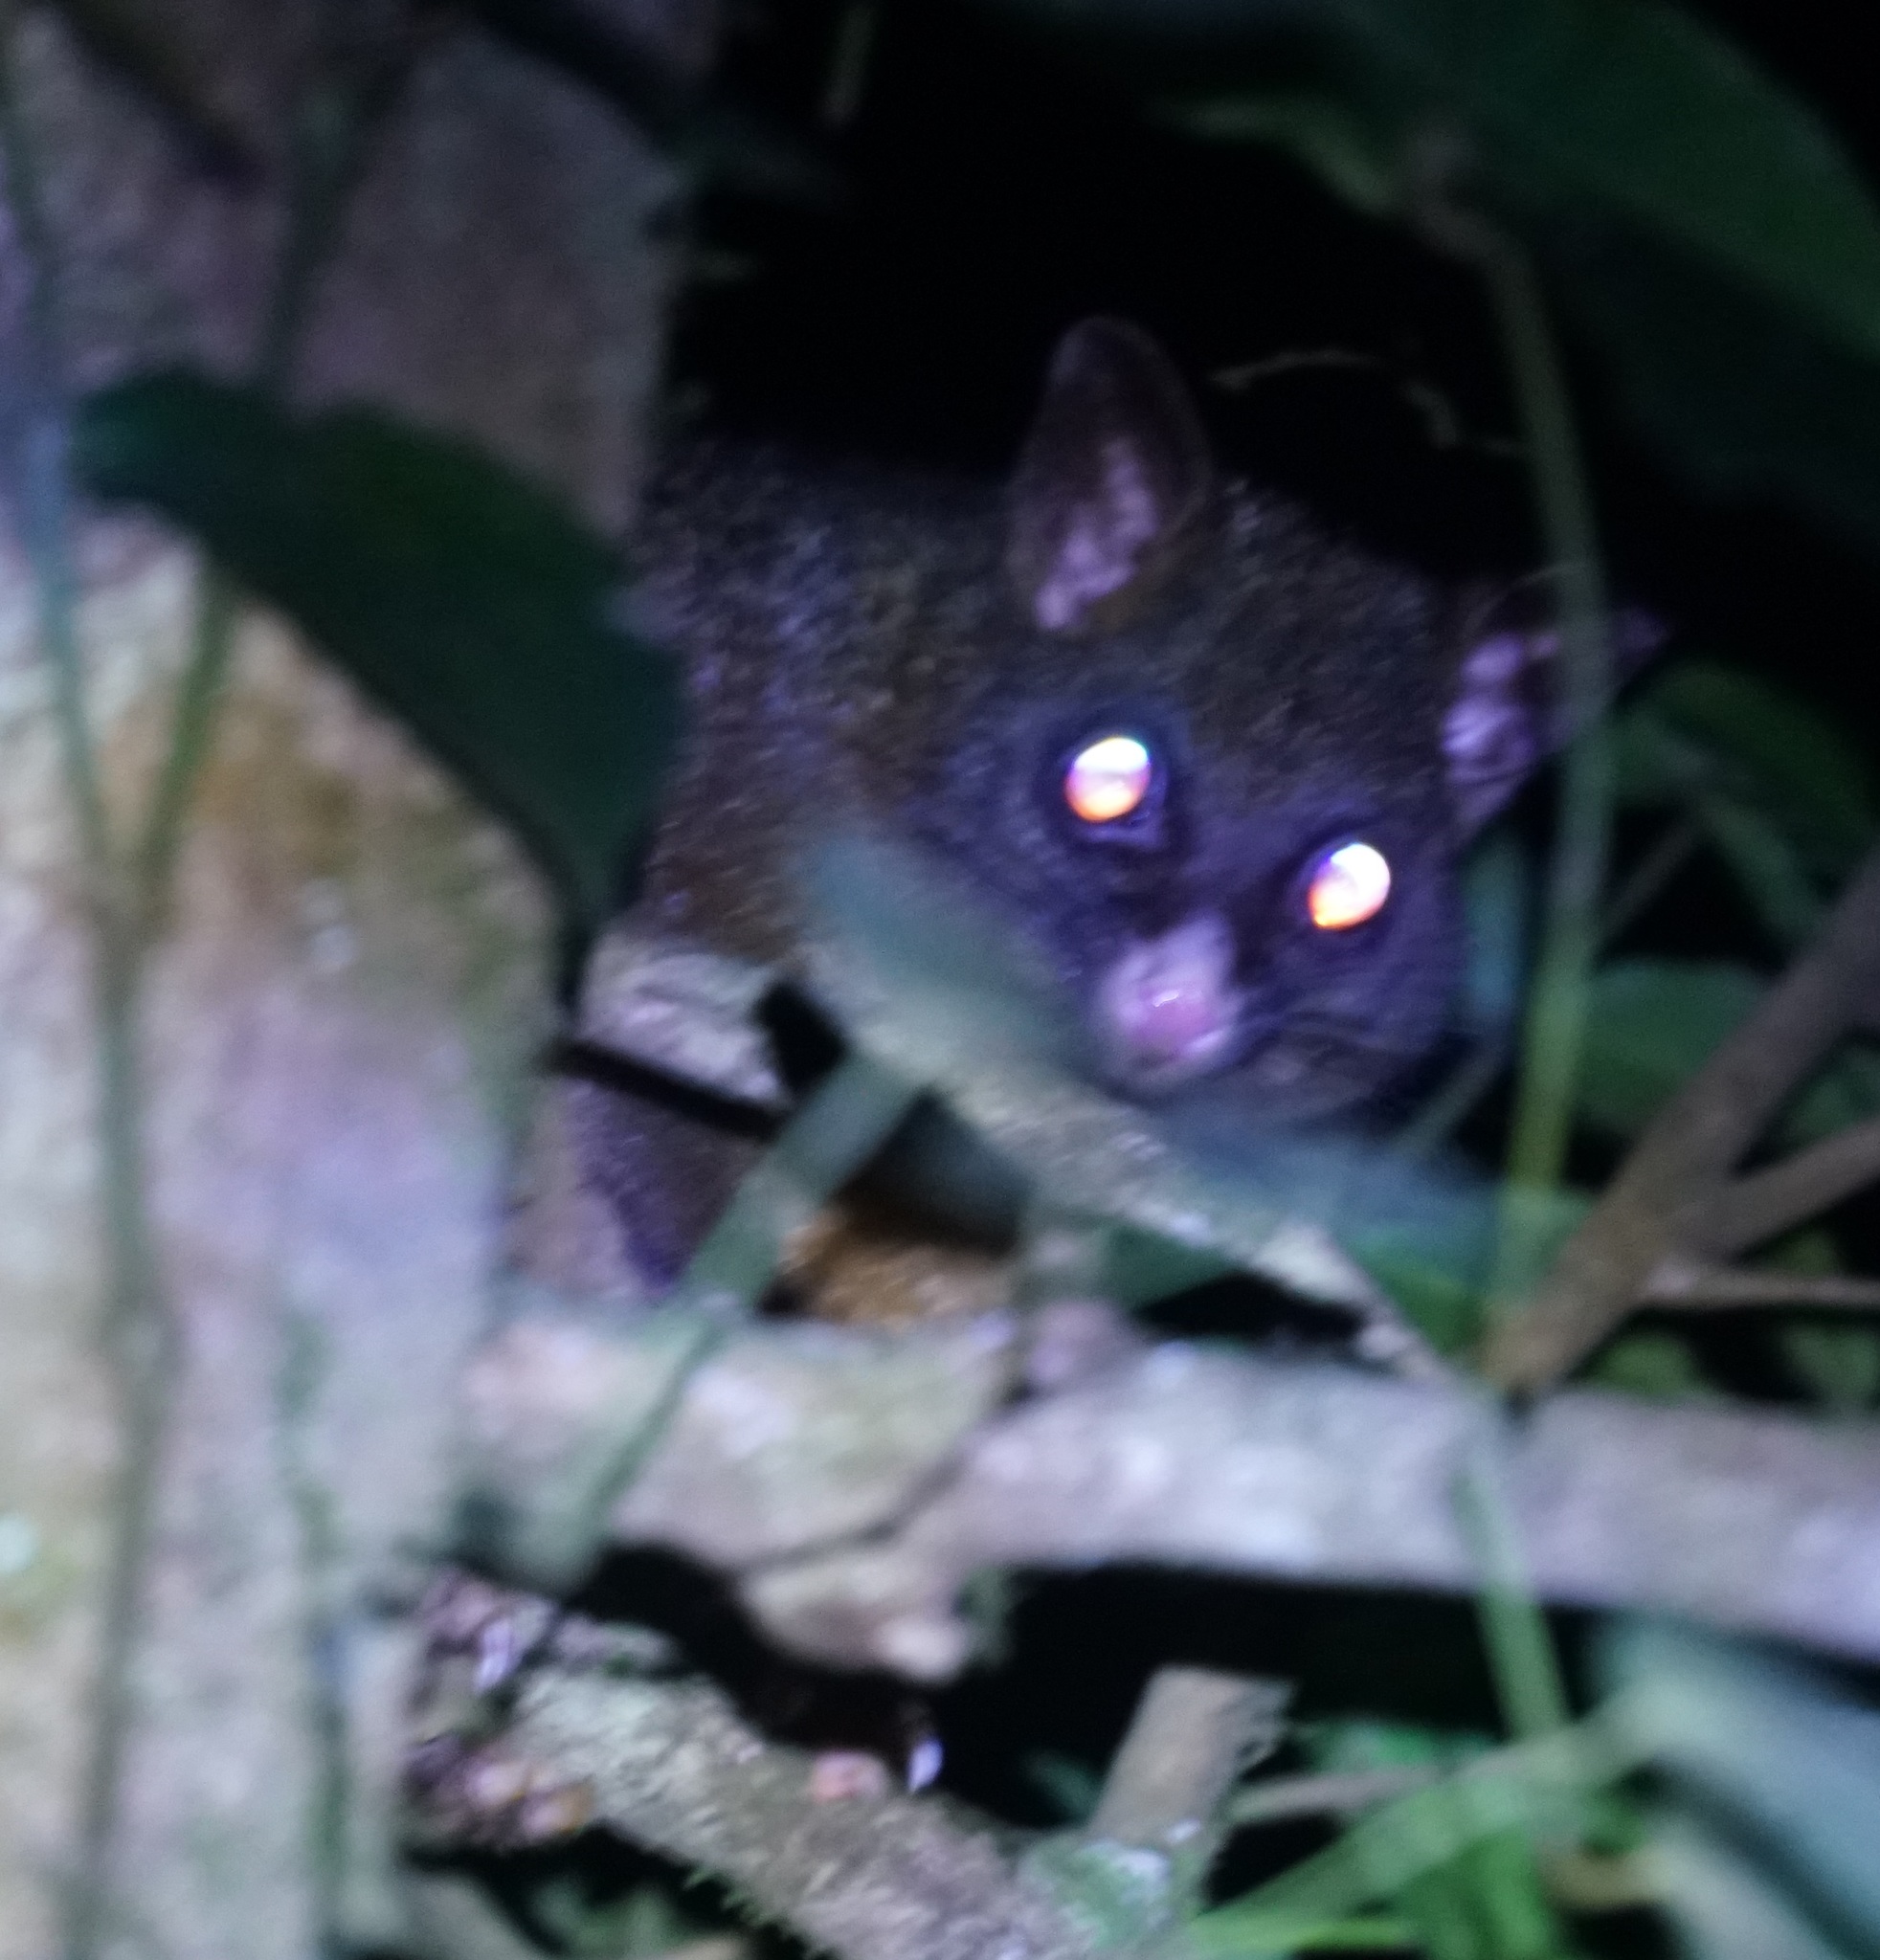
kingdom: Animalia
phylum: Chordata
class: Mammalia
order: Diprotodontia
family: Phalangeridae
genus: Trichosurus
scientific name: Trichosurus vulpecula
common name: Common brushtail
